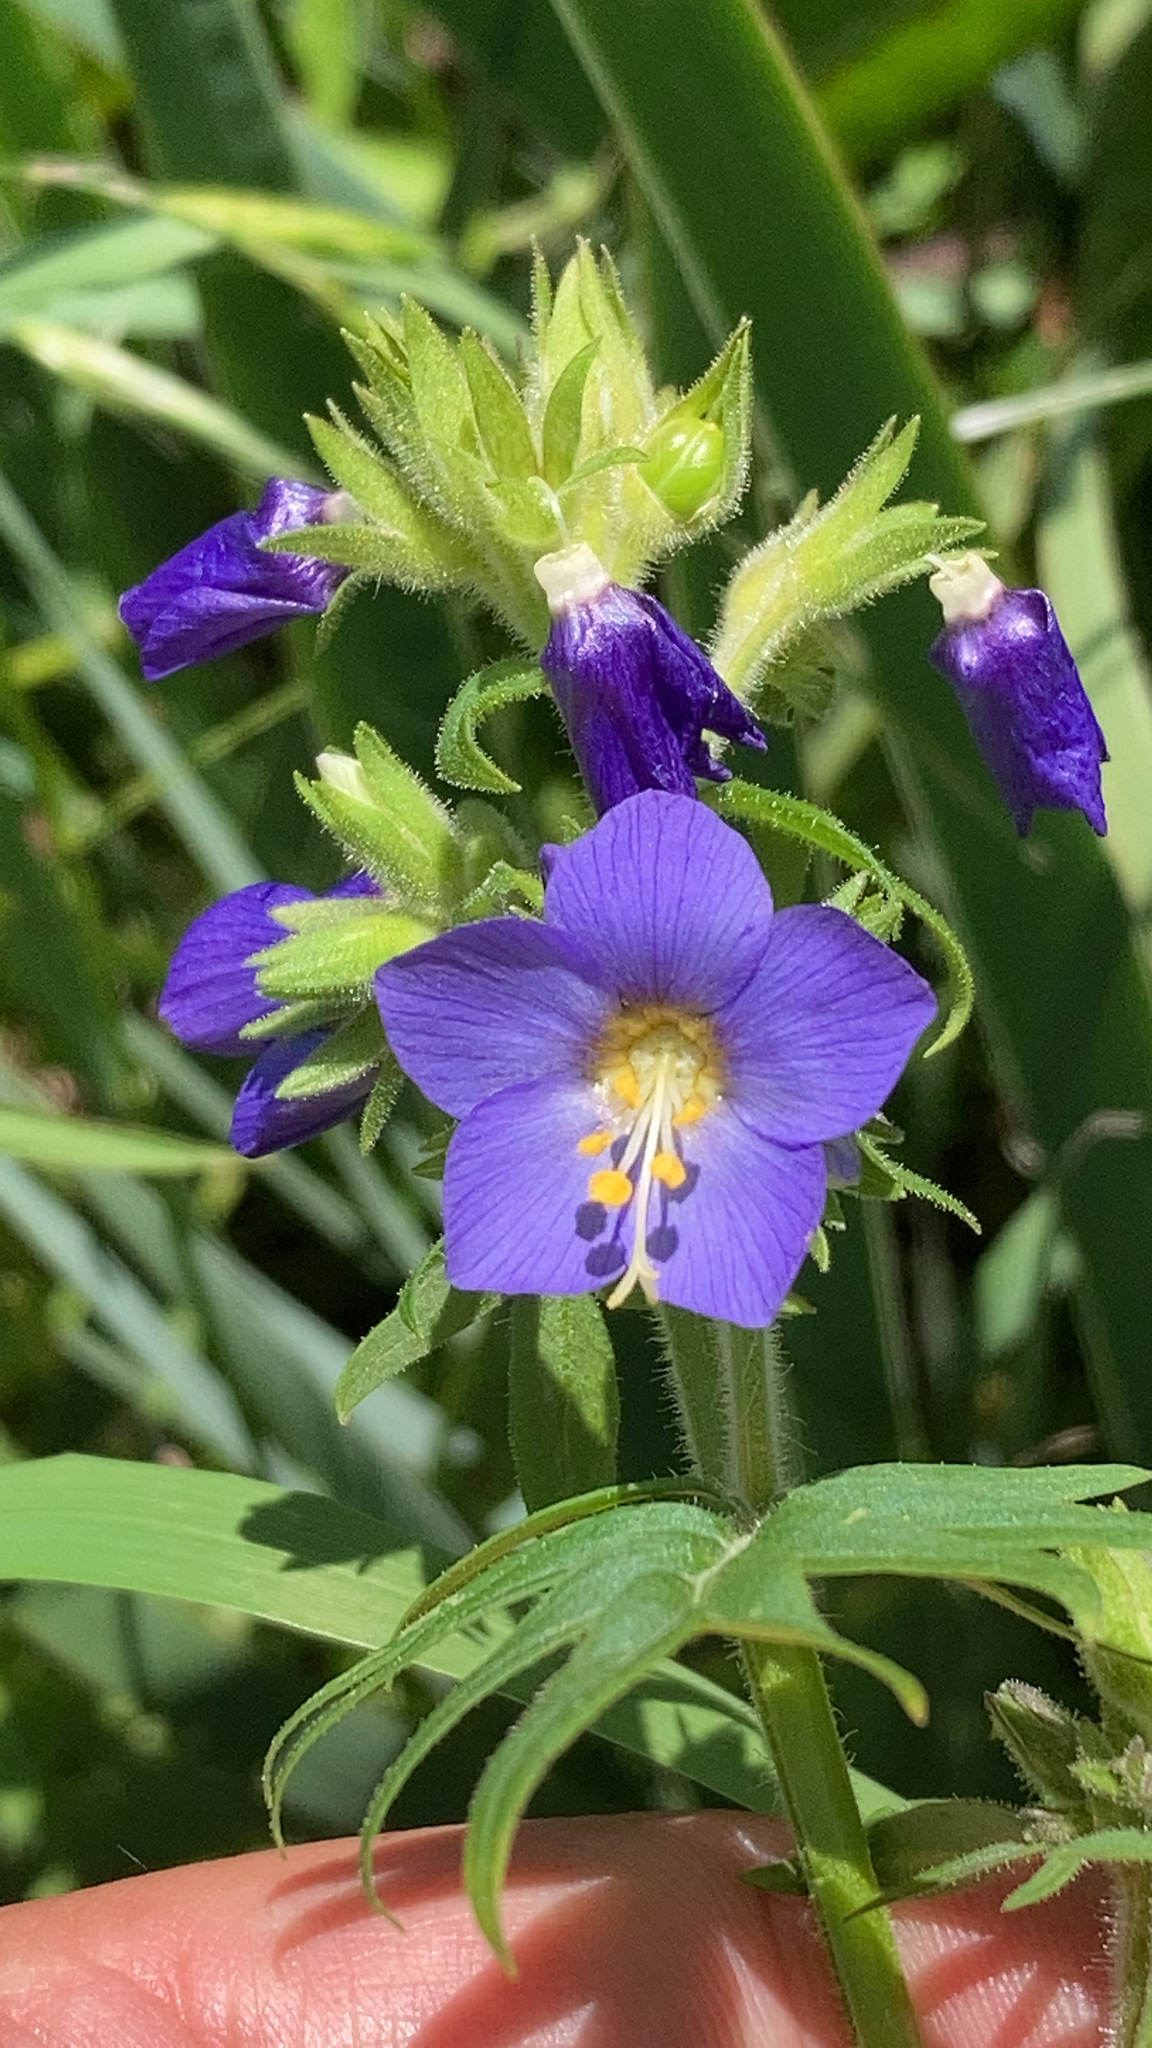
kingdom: Plantae
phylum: Tracheophyta
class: Magnoliopsida
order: Ericales
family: Polemoniaceae
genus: Polemonium
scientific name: Polemonium foliosissimum
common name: Leafy jacob's-ladder
